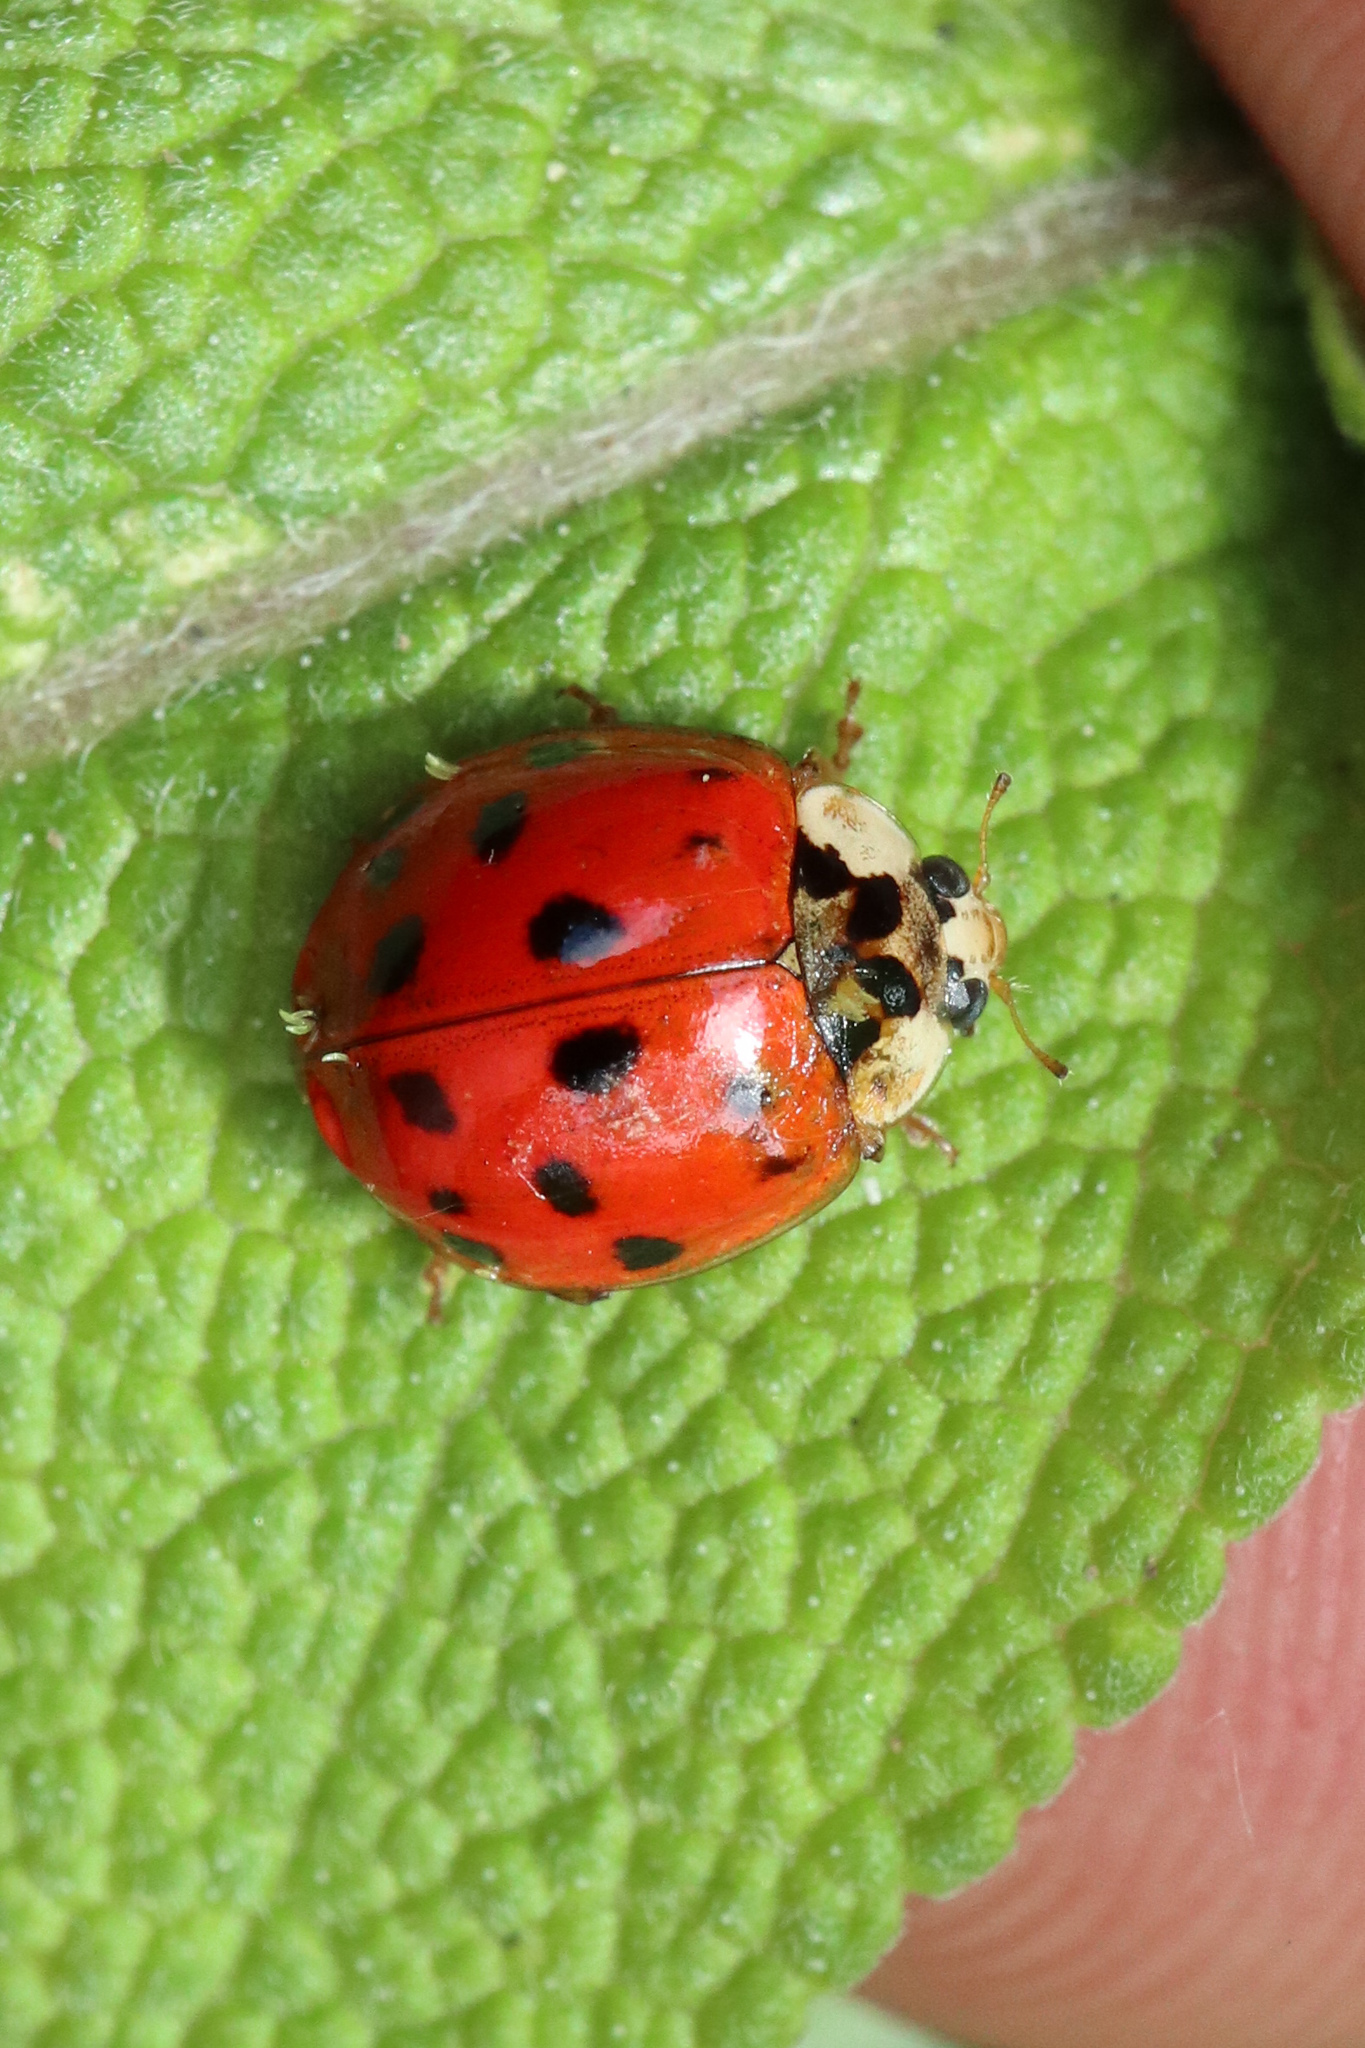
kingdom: Animalia
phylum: Arthropoda
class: Insecta
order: Coleoptera
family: Coccinellidae
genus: Harmonia
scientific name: Harmonia axyridis
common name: Harlequin ladybird
